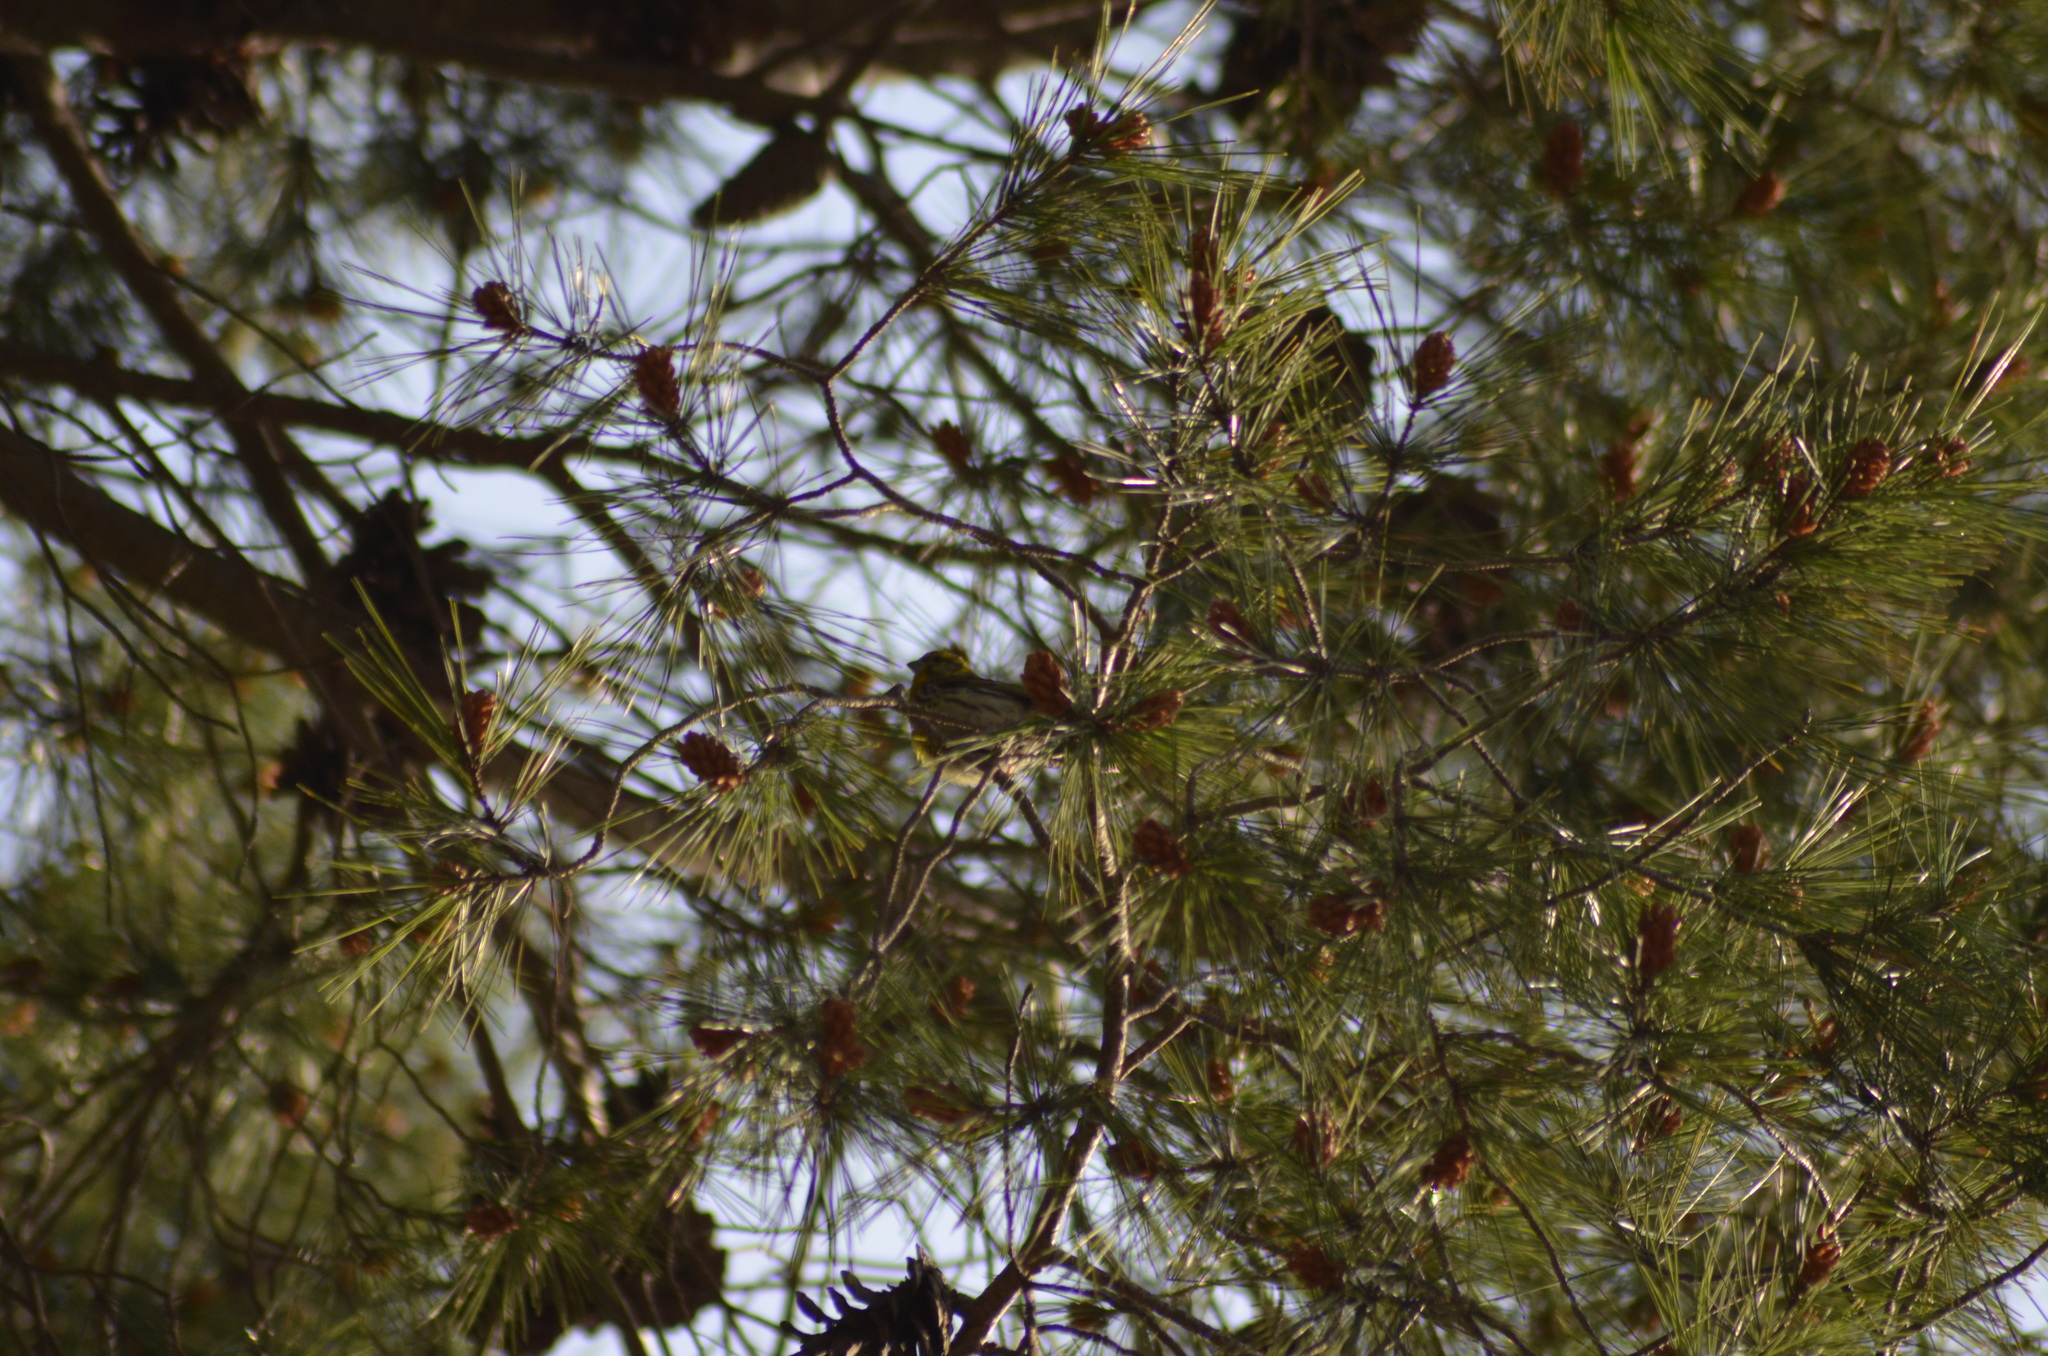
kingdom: Animalia
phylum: Chordata
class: Aves
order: Passeriformes
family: Fringillidae
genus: Serinus
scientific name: Serinus serinus
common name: European serin
